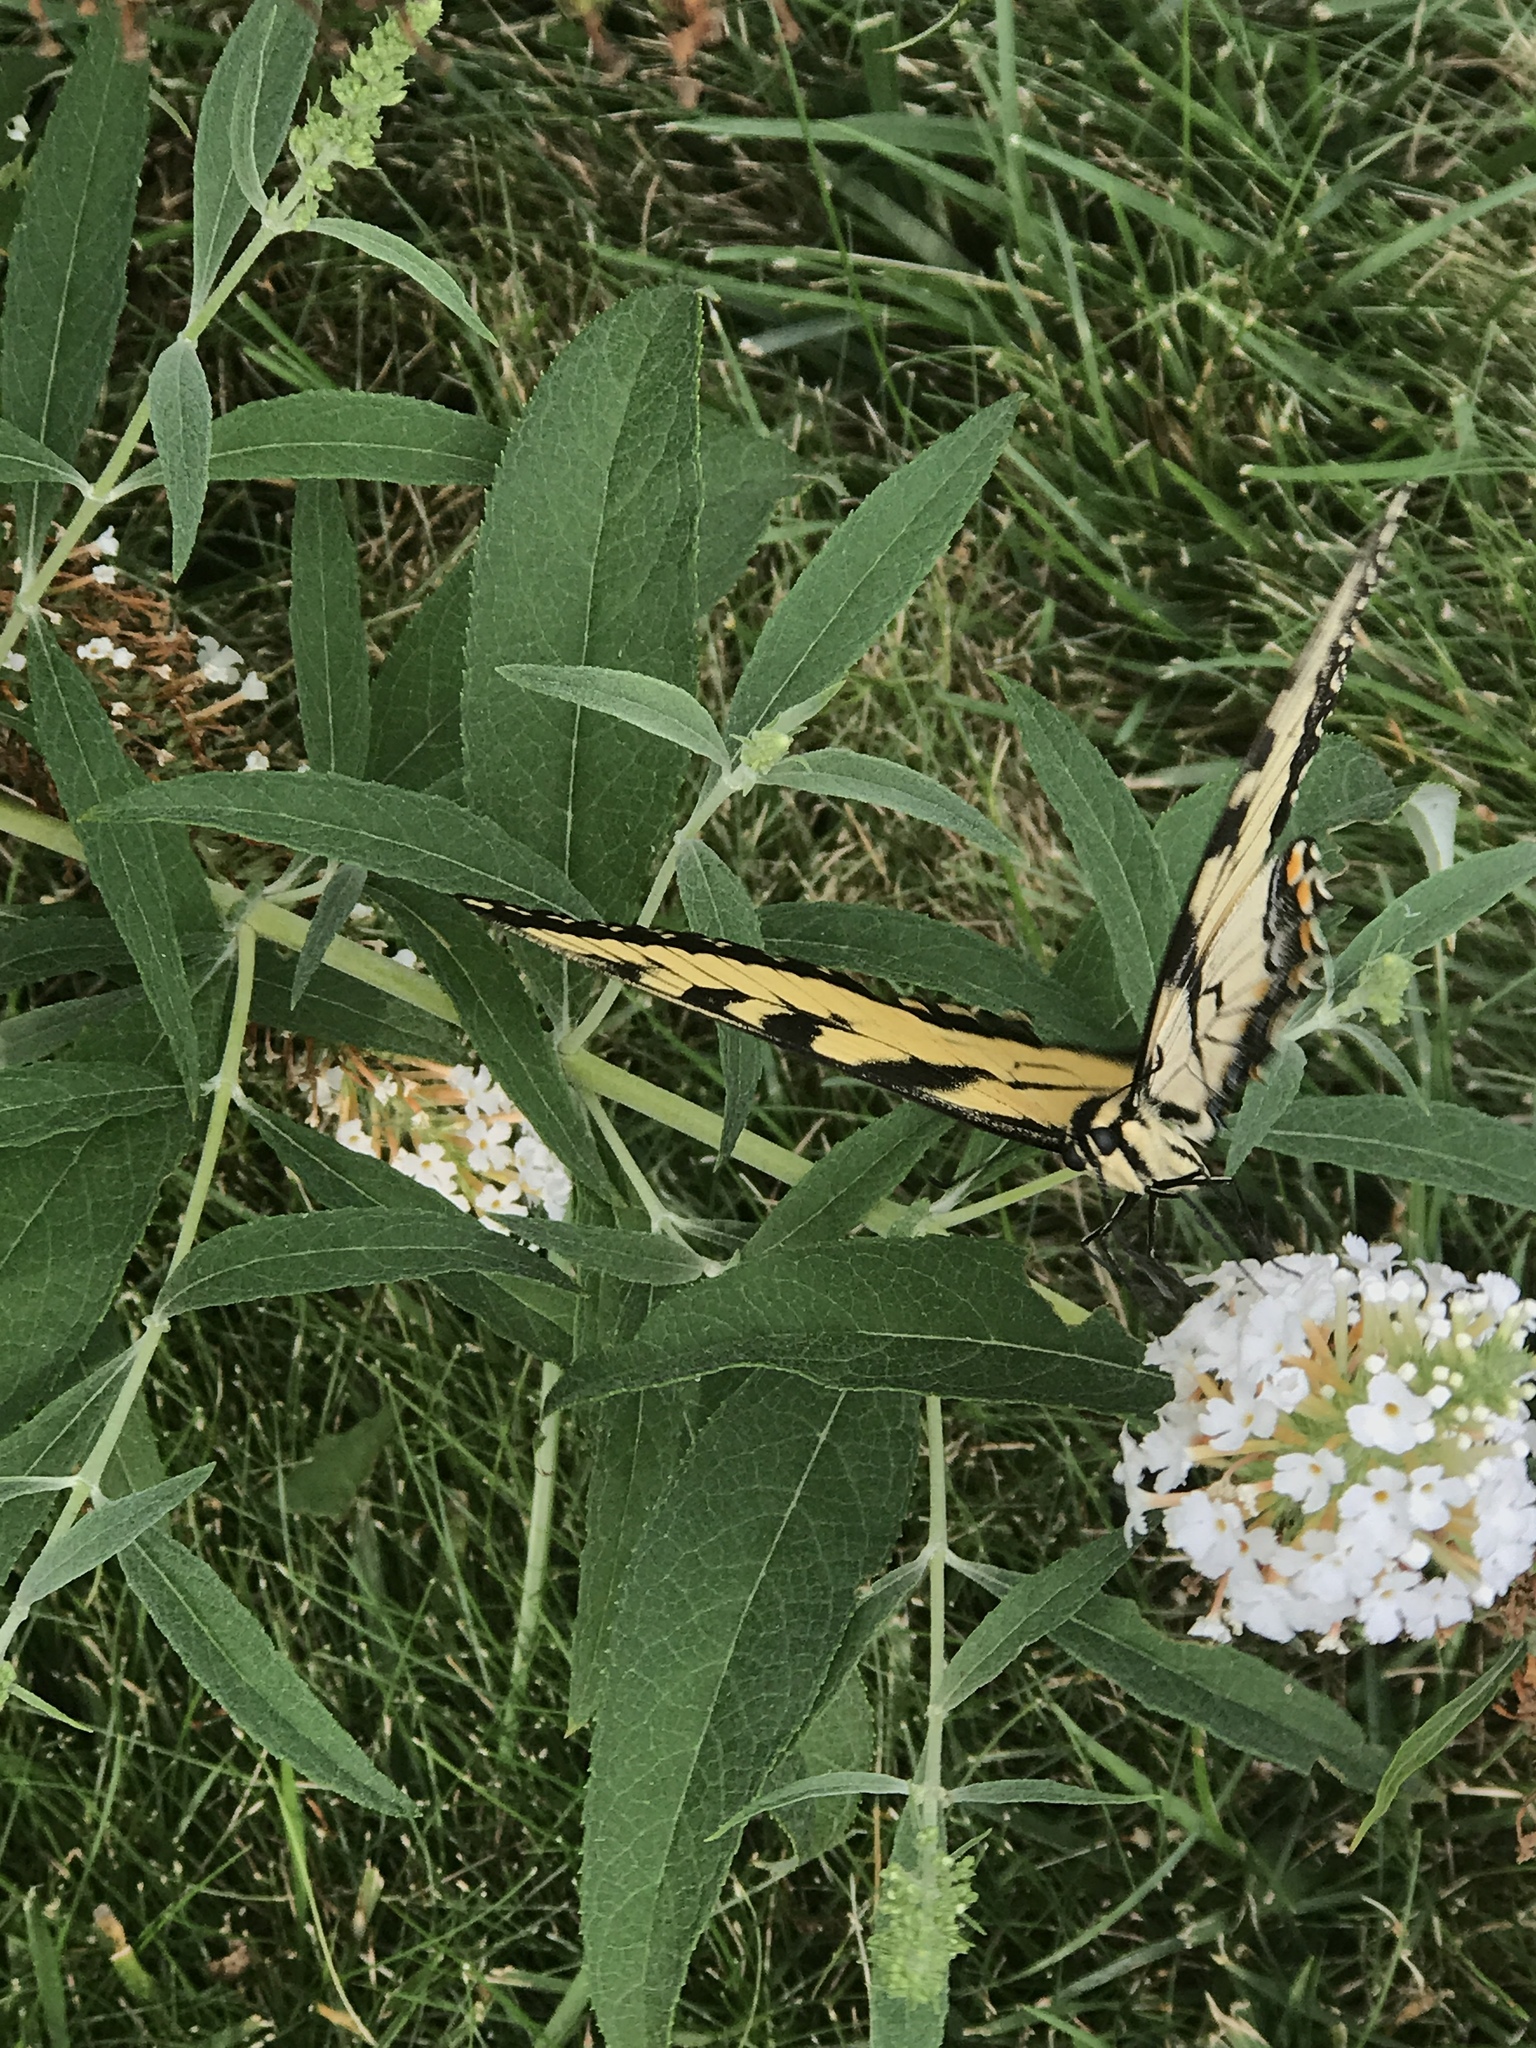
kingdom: Animalia
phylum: Arthropoda
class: Insecta
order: Lepidoptera
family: Papilionidae
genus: Papilio
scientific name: Papilio glaucus
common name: Tiger swallowtail
